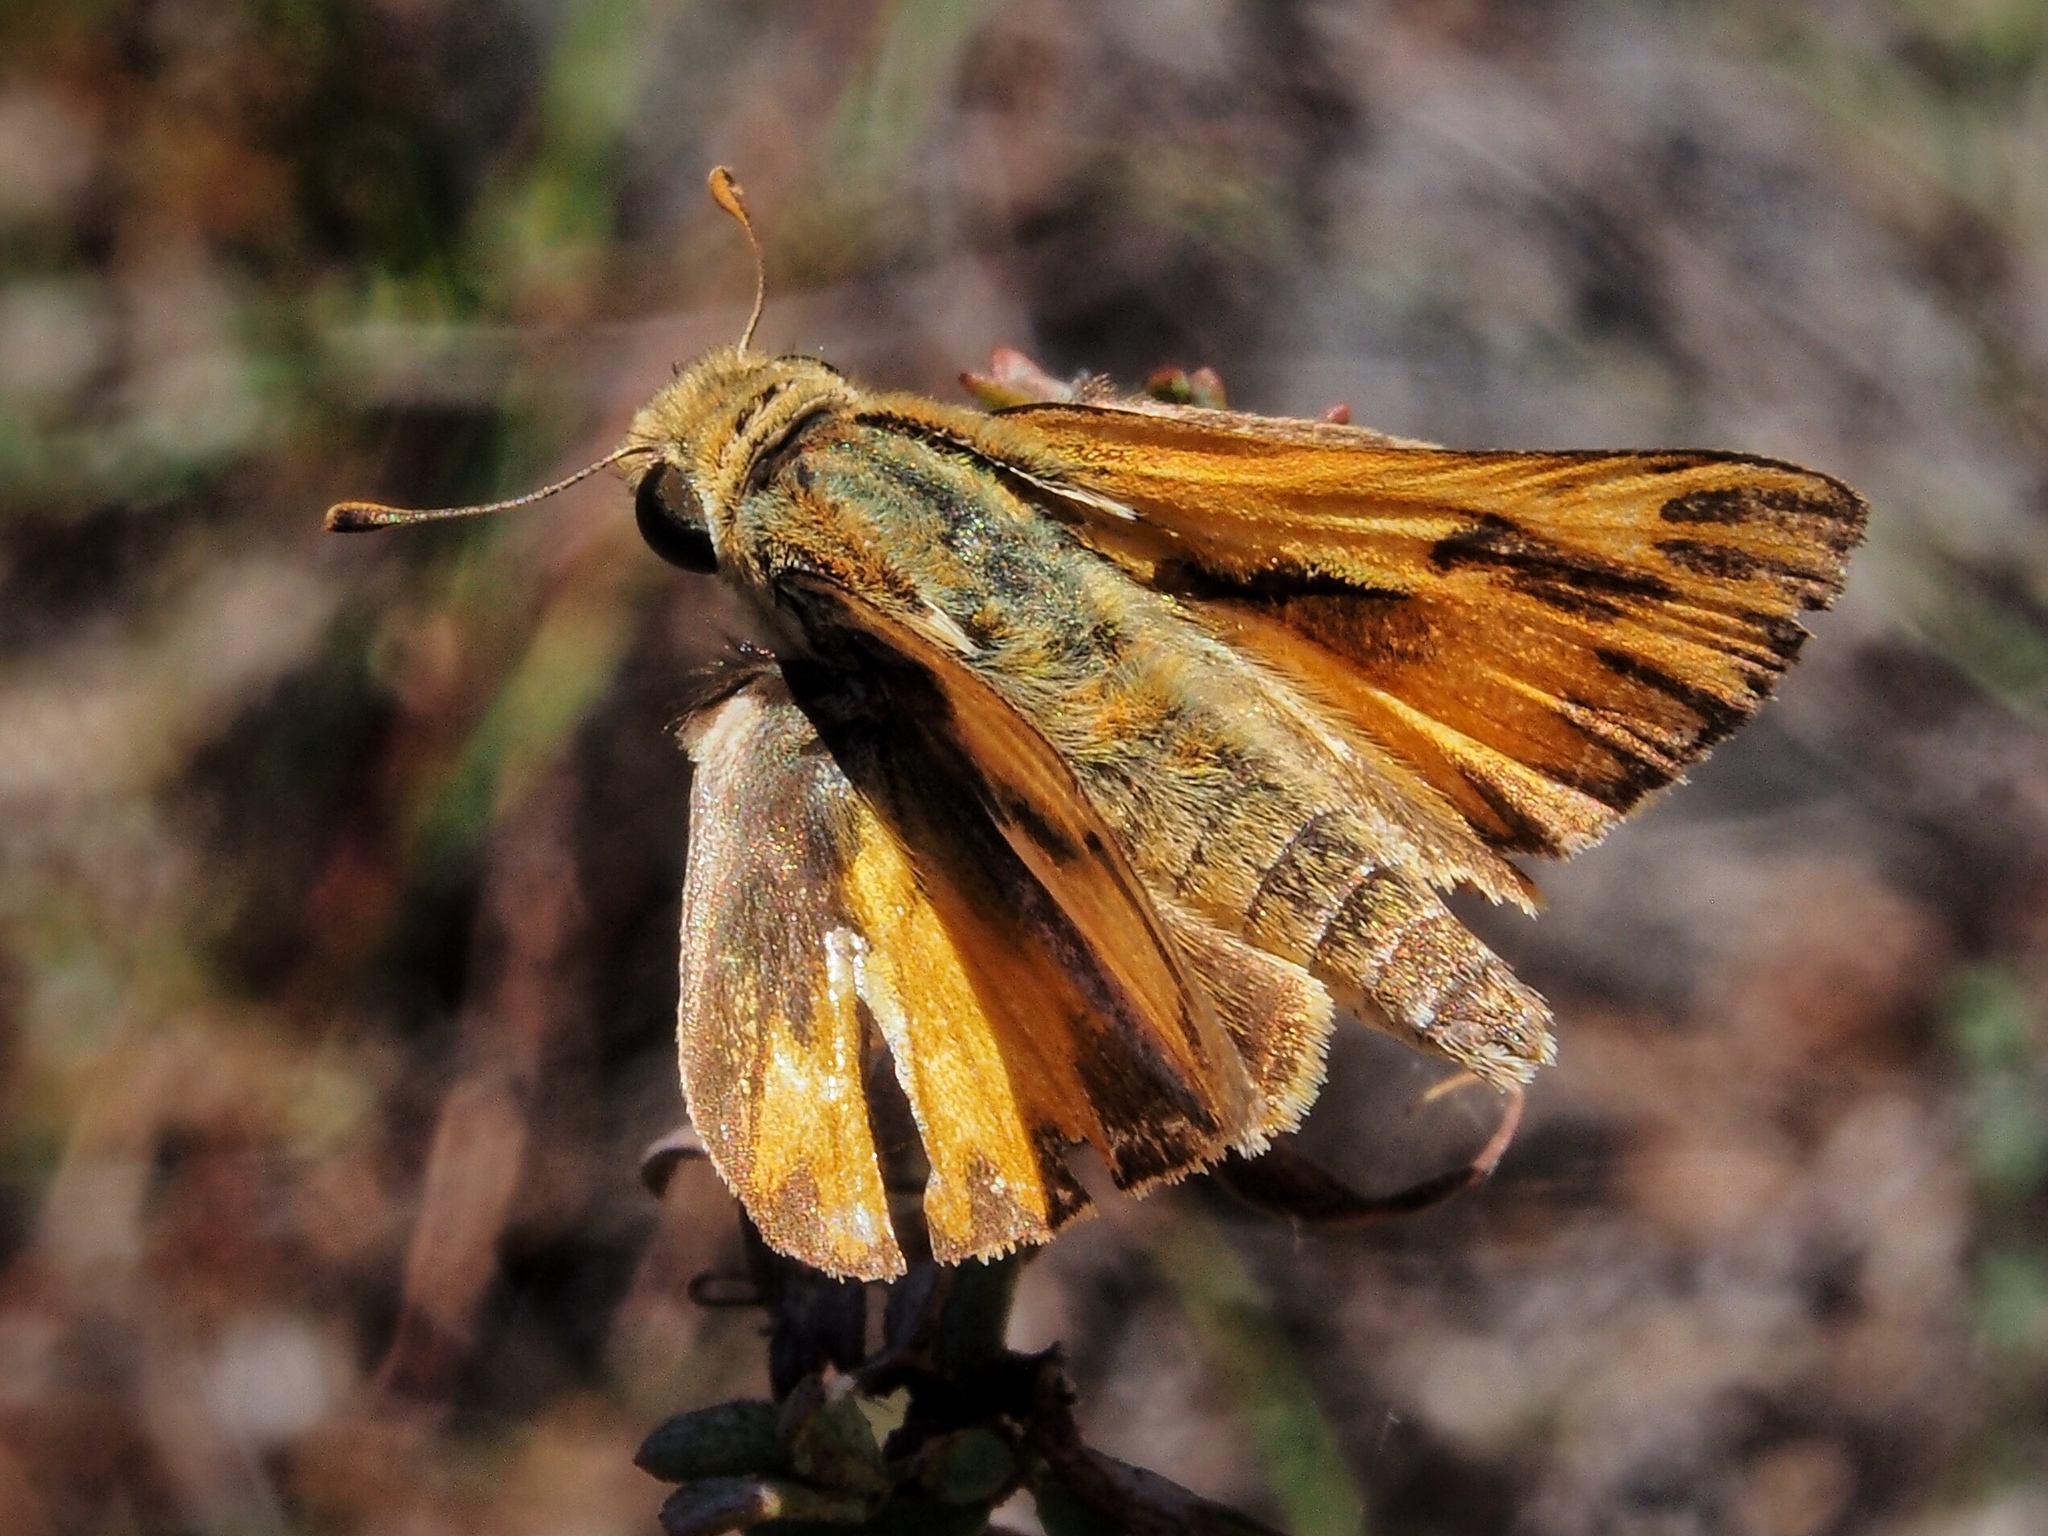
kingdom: Animalia
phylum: Arthropoda
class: Insecta
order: Lepidoptera
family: Hesperiidae
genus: Hylephila
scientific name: Hylephila phyleus
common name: Fiery skipper
